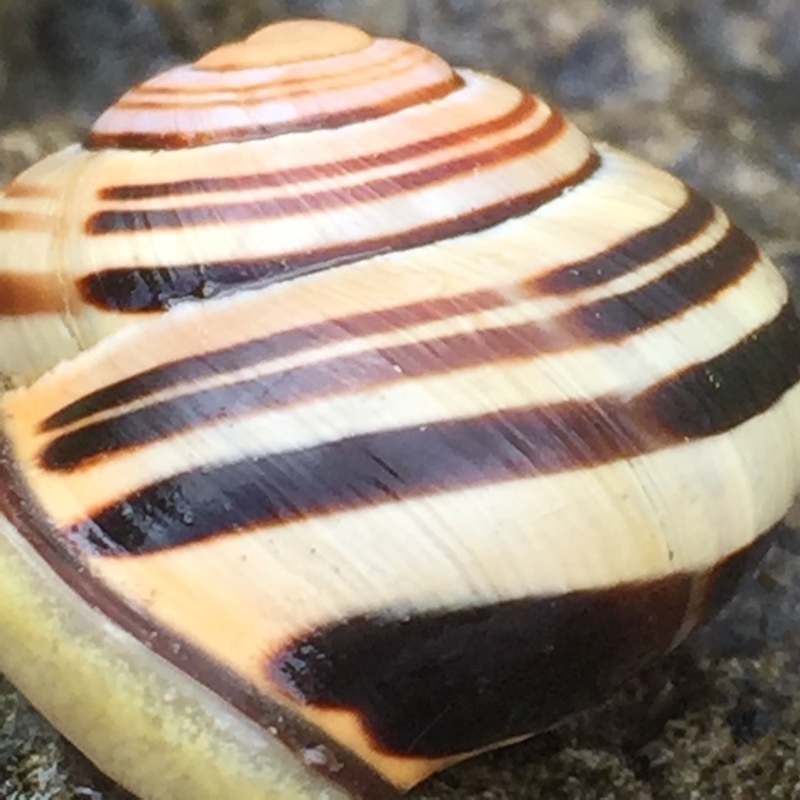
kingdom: Animalia
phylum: Mollusca
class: Gastropoda
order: Stylommatophora
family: Helicidae
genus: Cepaea
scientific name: Cepaea nemoralis
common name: Grovesnail
